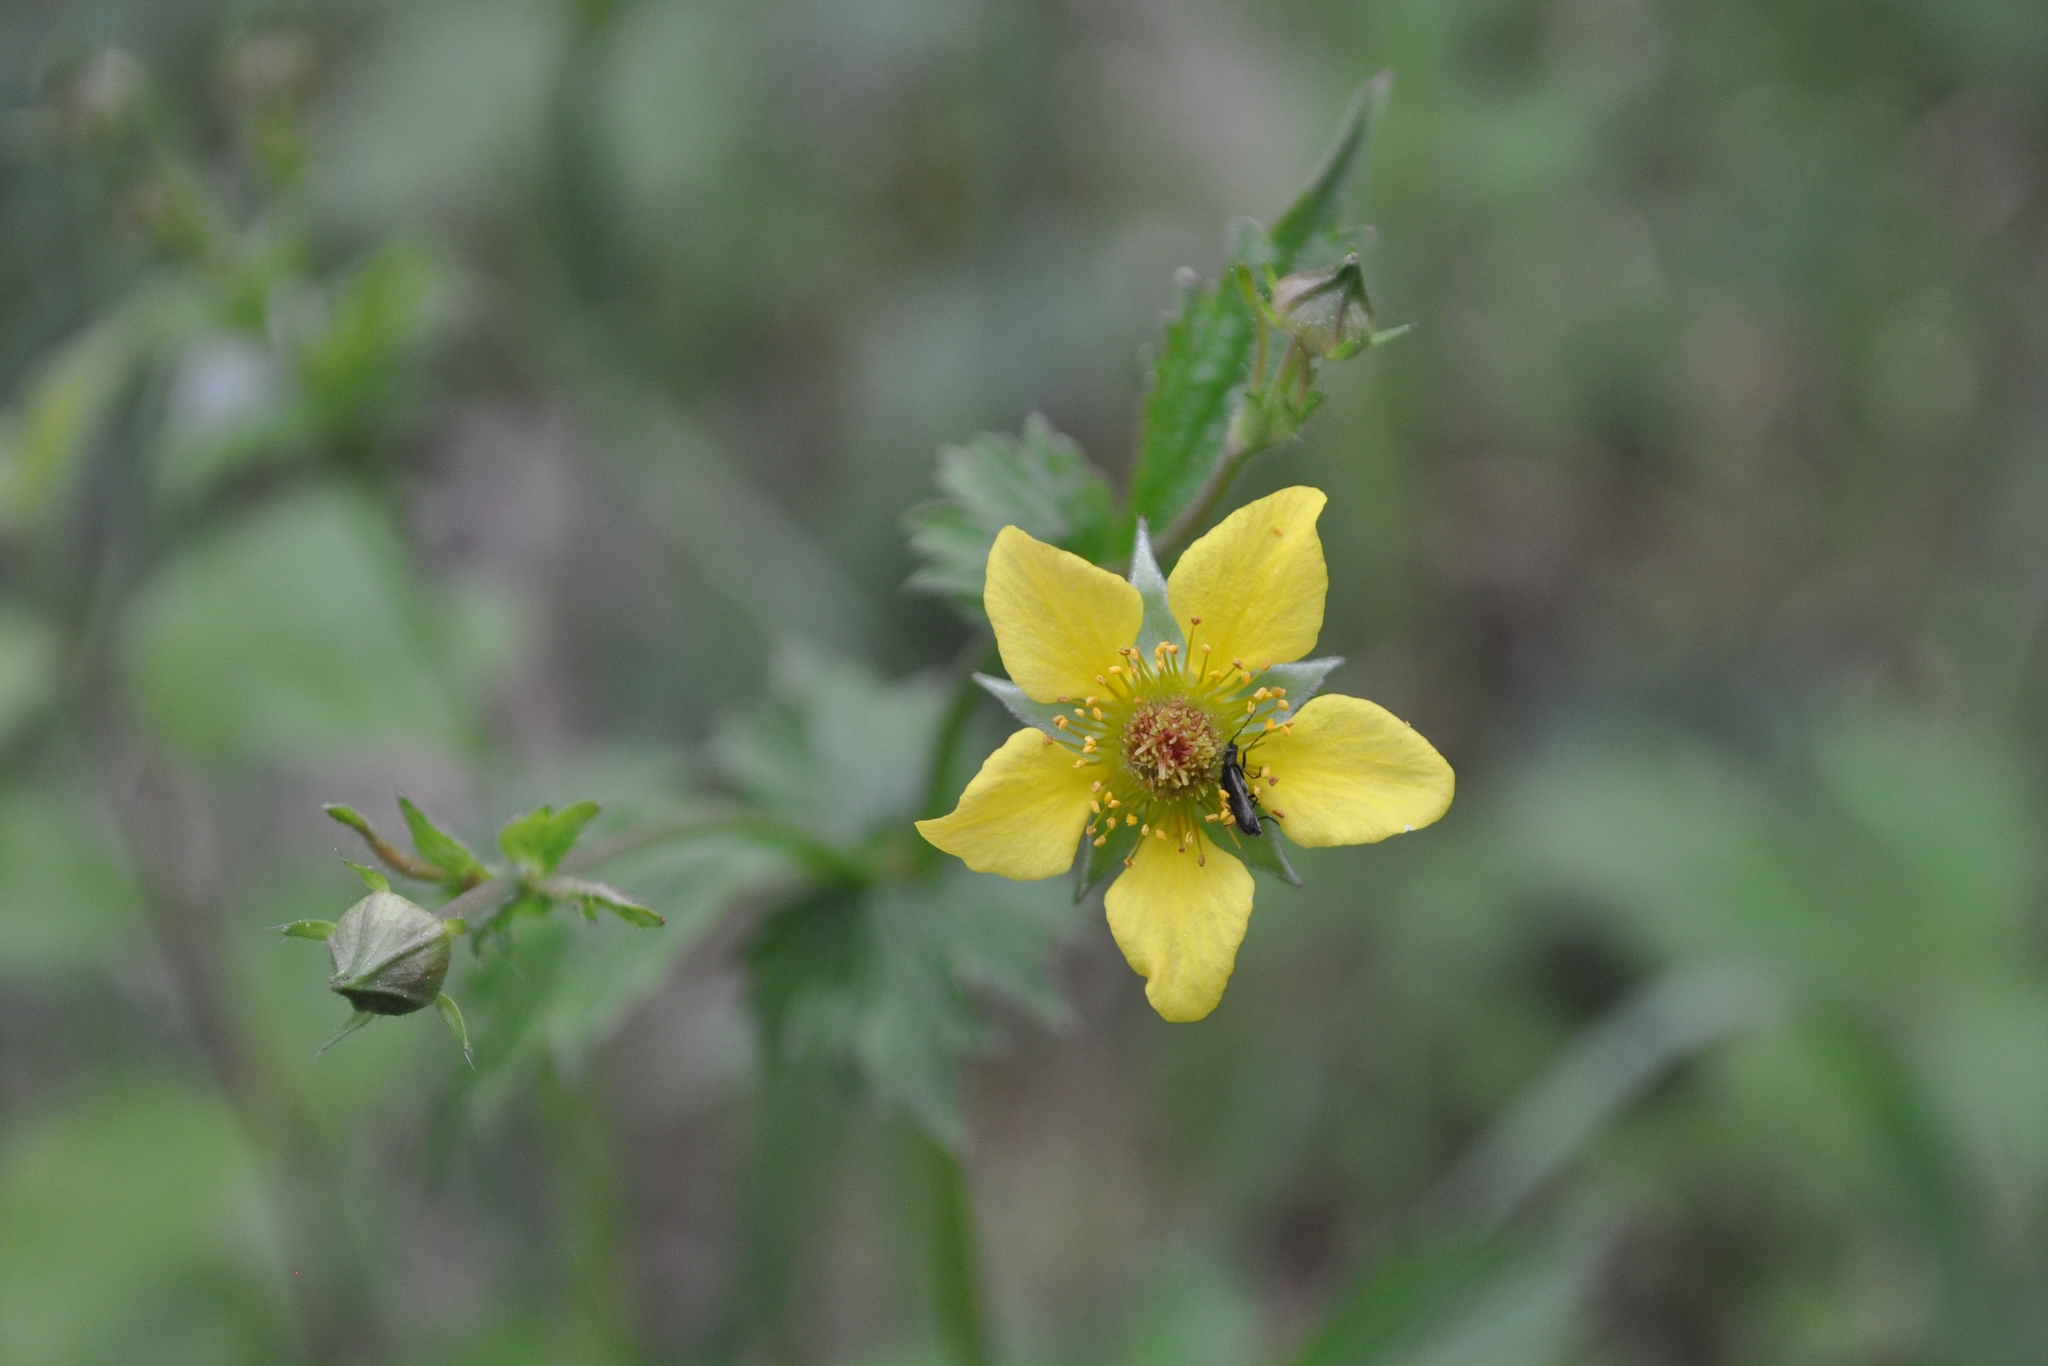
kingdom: Plantae
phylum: Tracheophyta
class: Magnoliopsida
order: Rosales
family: Rosaceae
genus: Geum
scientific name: Geum urbanum
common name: Wood avens
